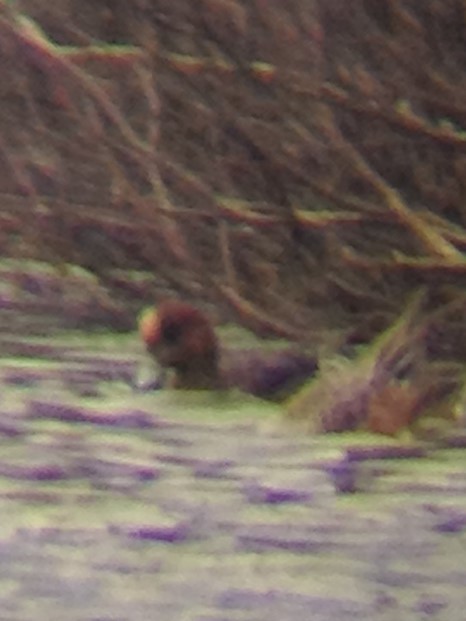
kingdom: Animalia
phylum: Chordata
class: Aves
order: Anseriformes
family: Anatidae
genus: Mareca
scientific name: Mareca penelope
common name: Eurasian wigeon
